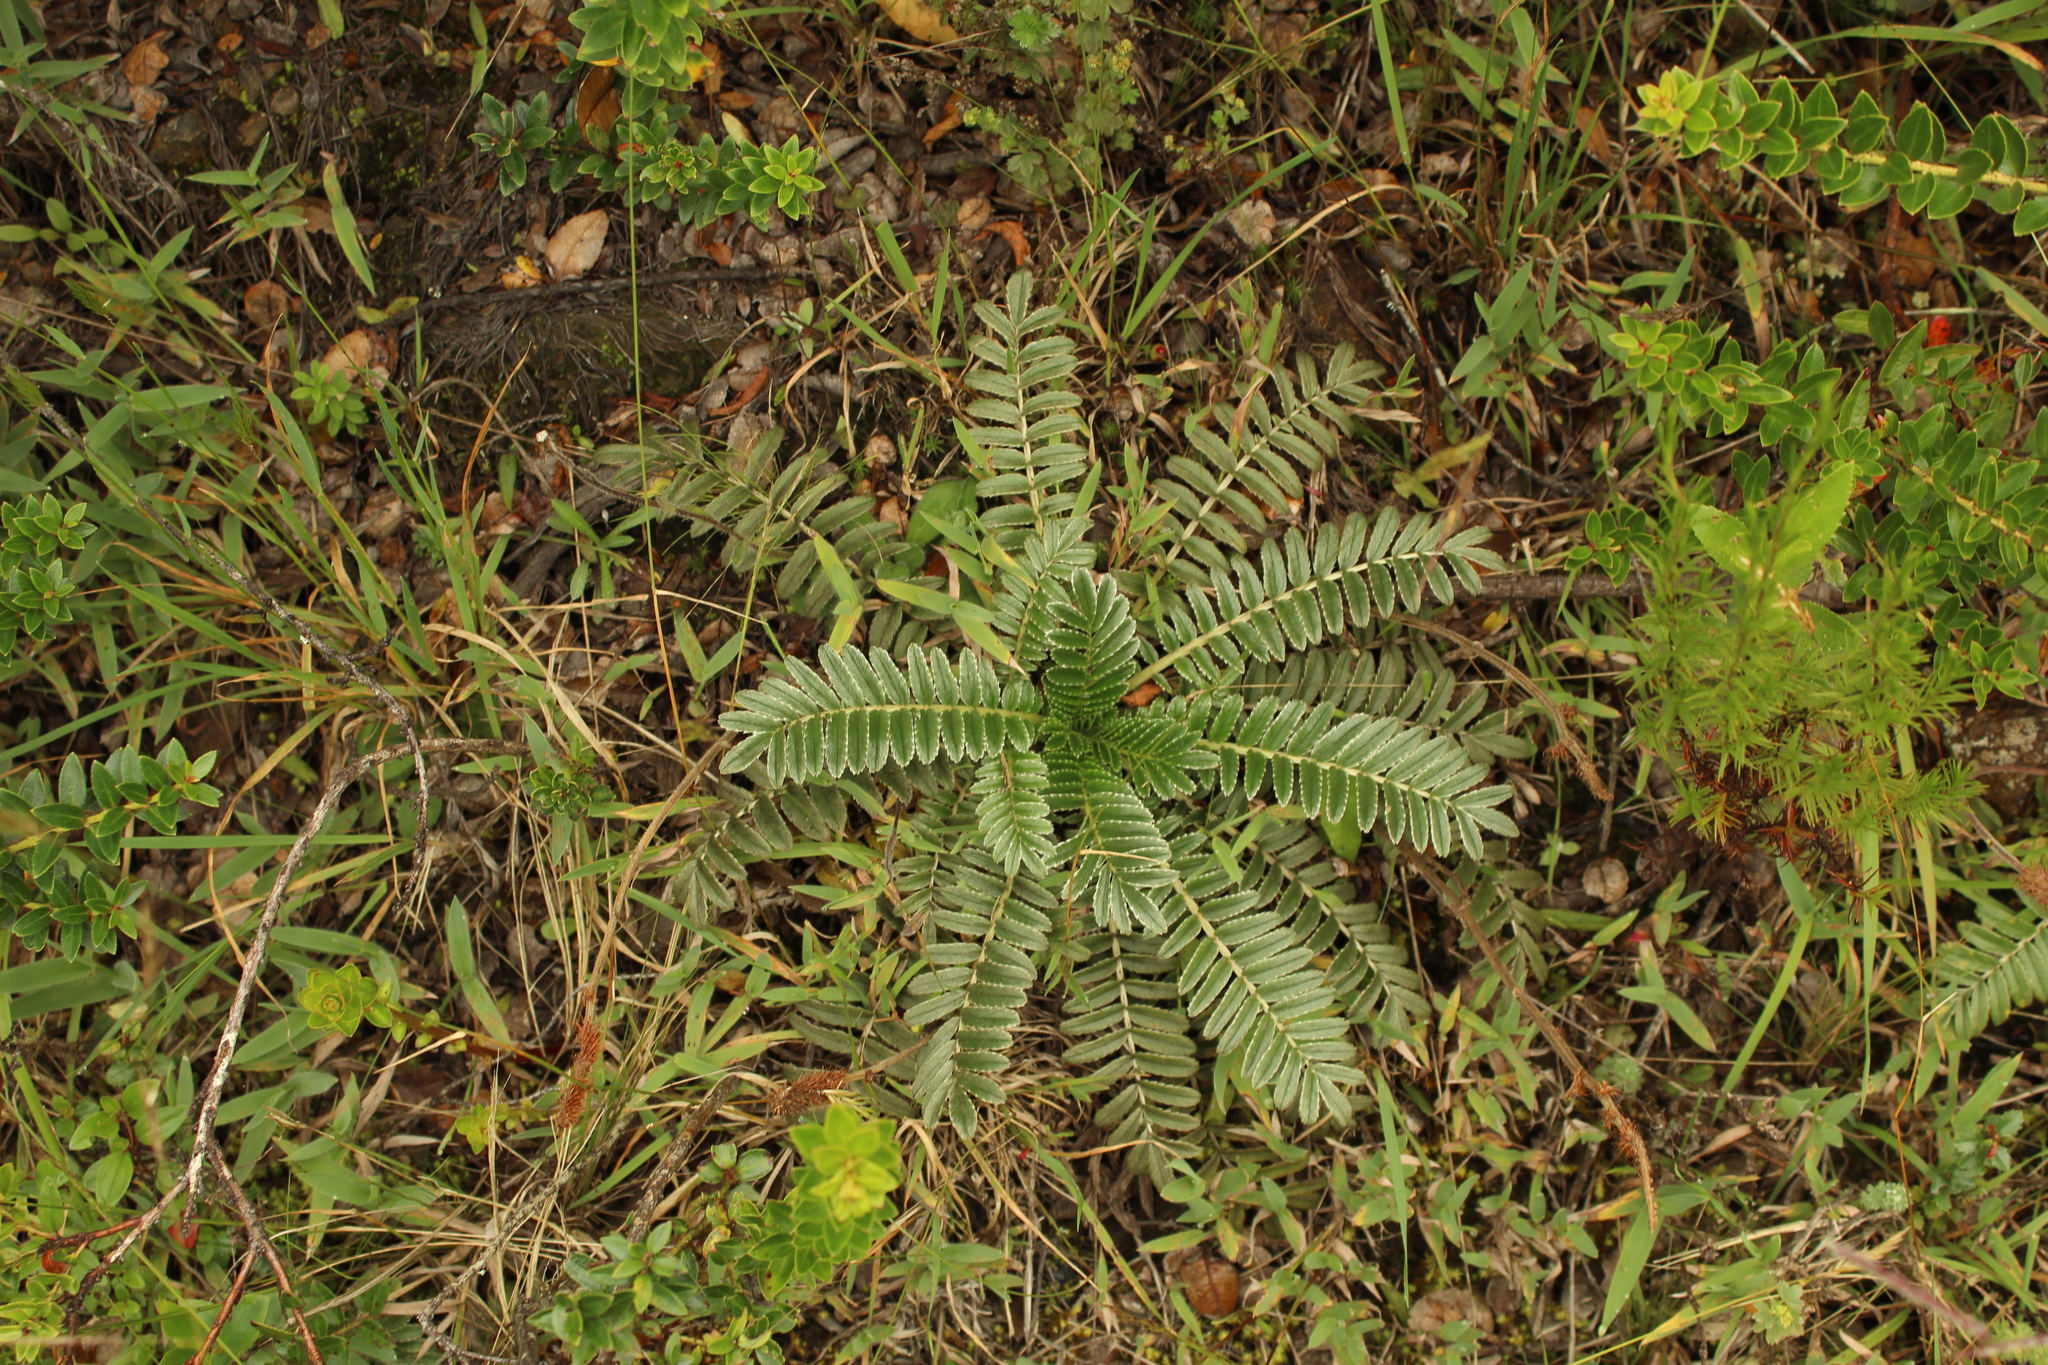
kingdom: Plantae
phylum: Tracheophyta
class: Magnoliopsida
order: Rosales
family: Rosaceae
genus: Acaena
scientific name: Acaena cylindristachya
